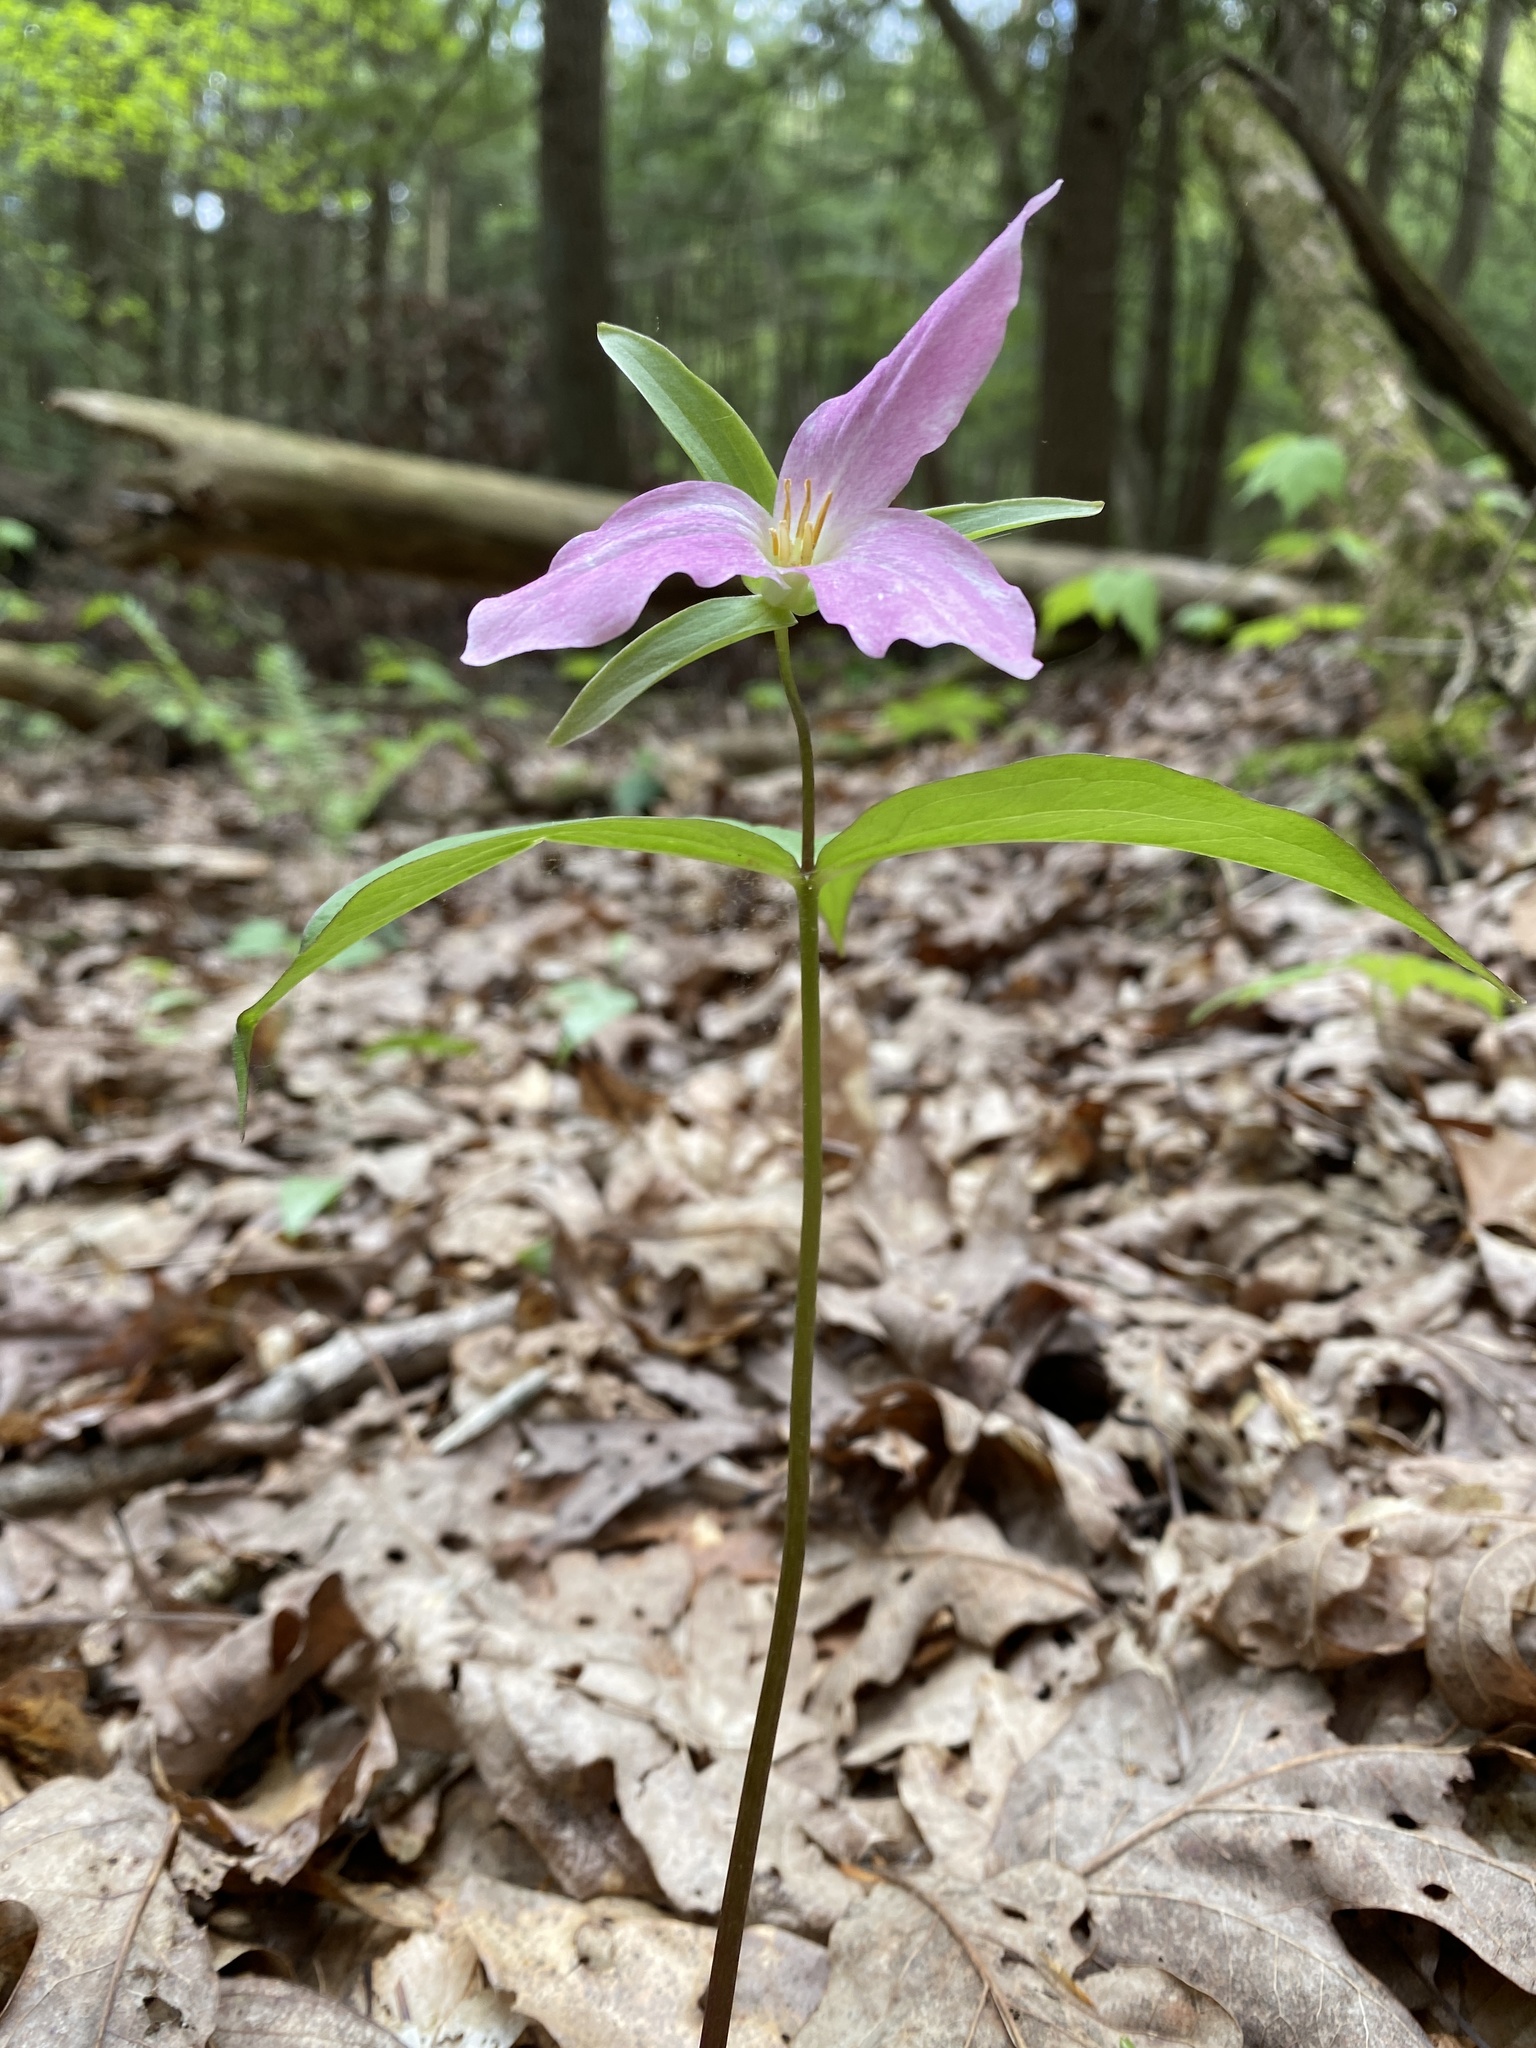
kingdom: Plantae
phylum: Tracheophyta
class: Liliopsida
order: Liliales
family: Melanthiaceae
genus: Trillium
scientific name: Trillium grandiflorum
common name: Great white trillium
